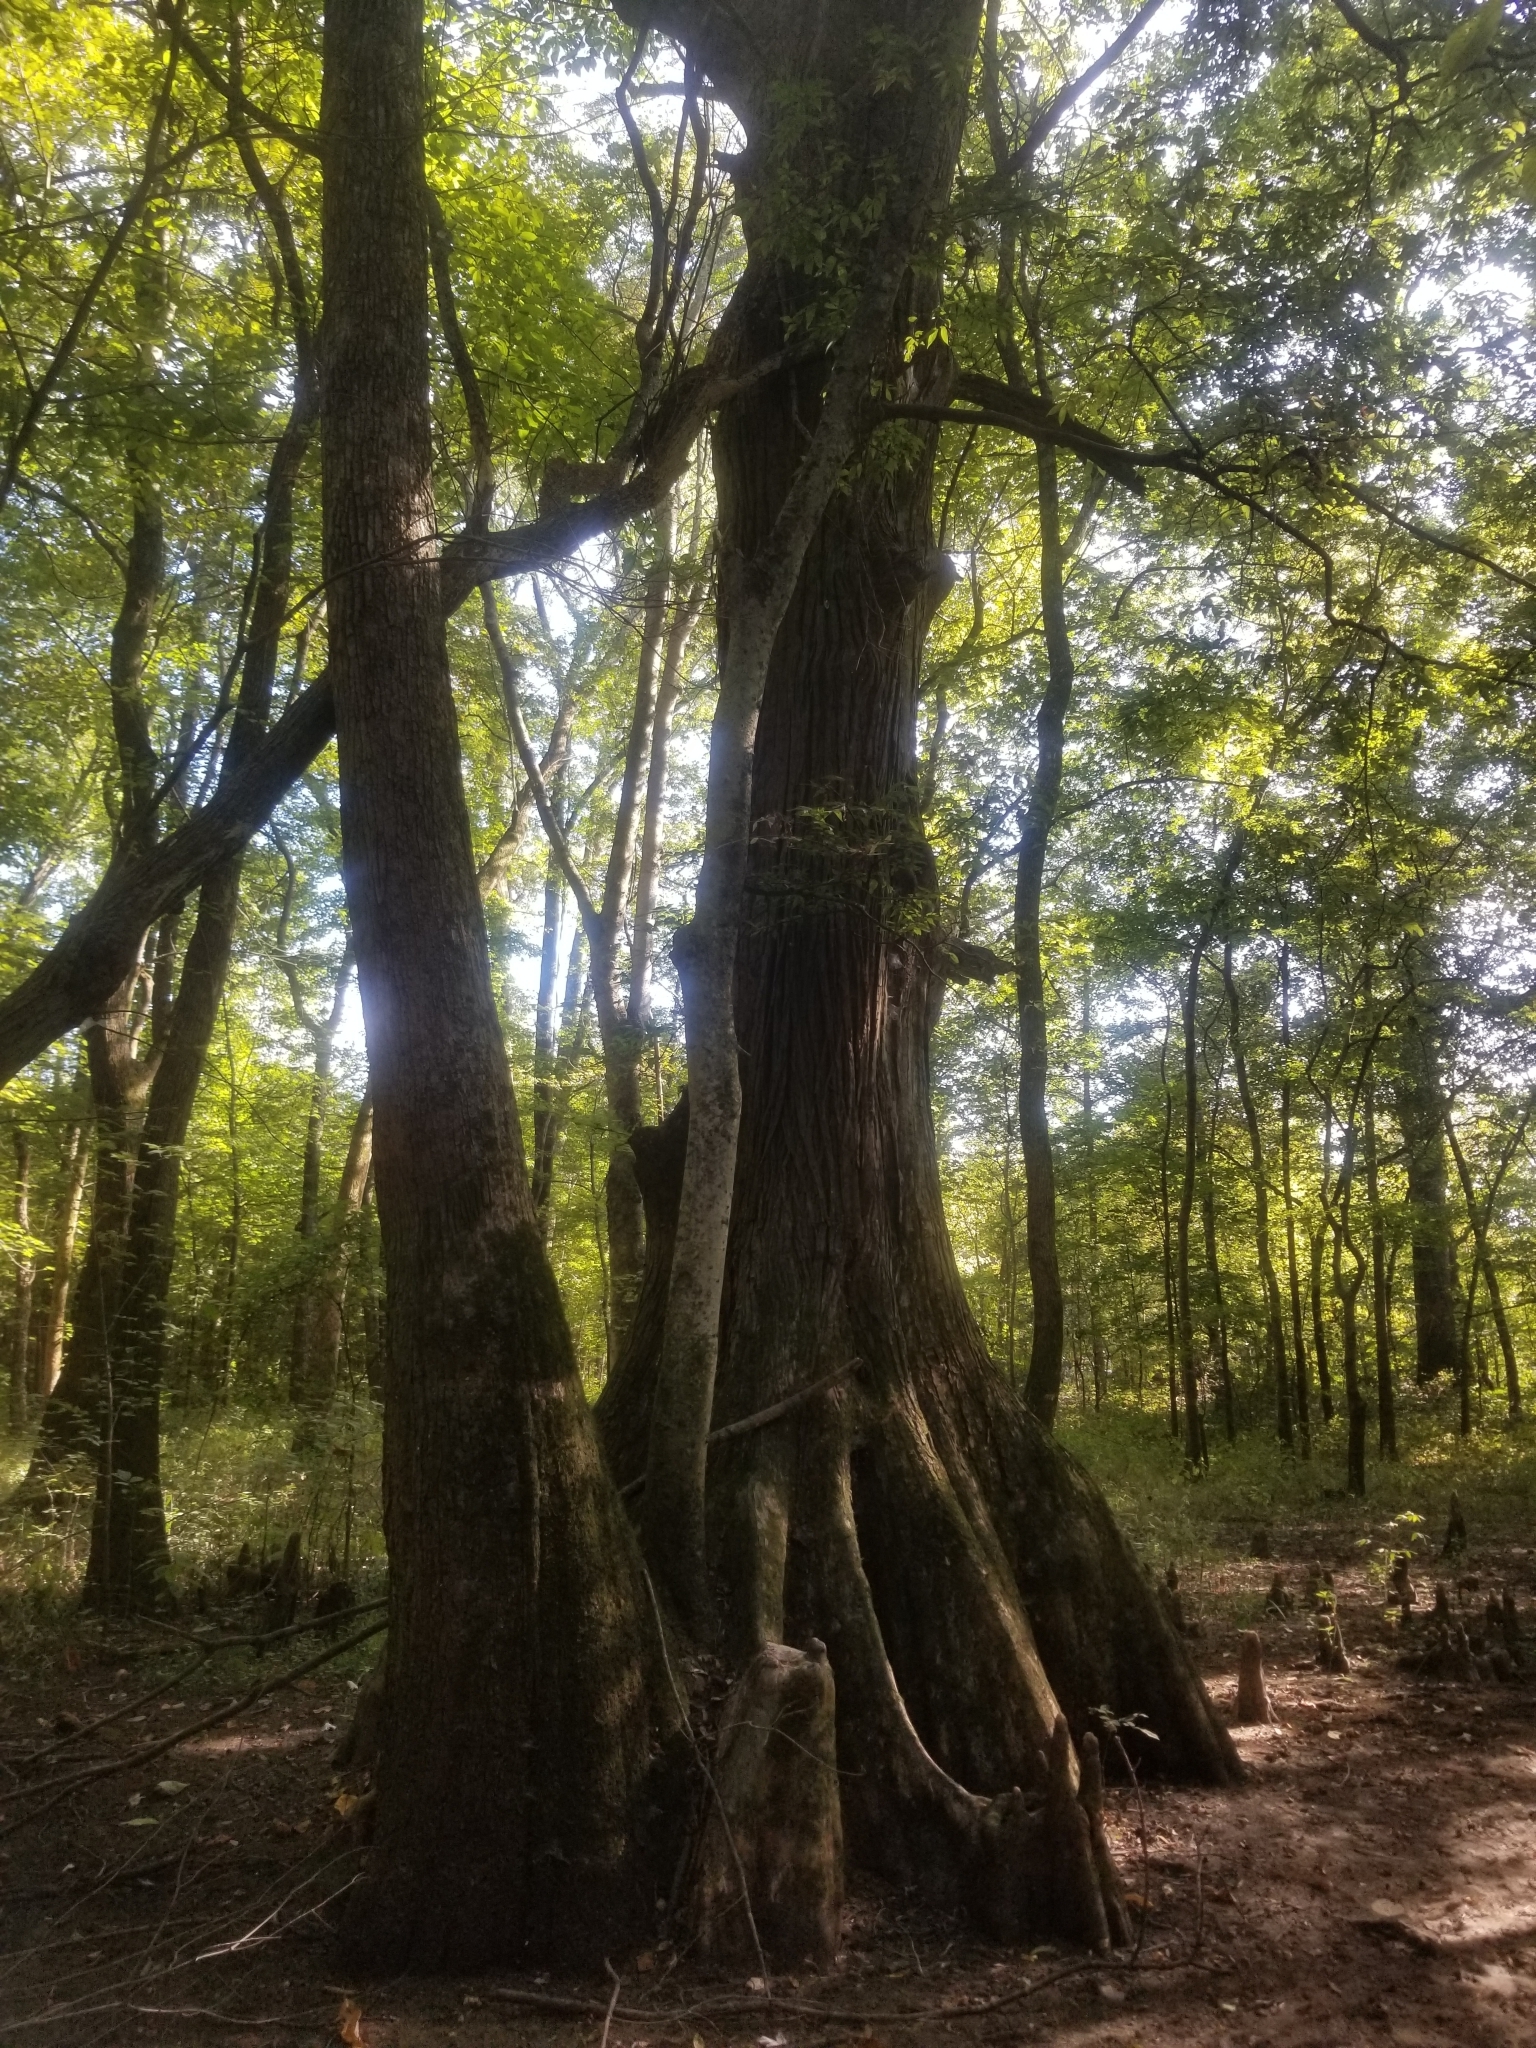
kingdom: Plantae
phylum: Tracheophyta
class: Pinopsida
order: Pinales
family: Cupressaceae
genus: Taxodium
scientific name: Taxodium distichum
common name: Bald cypress
